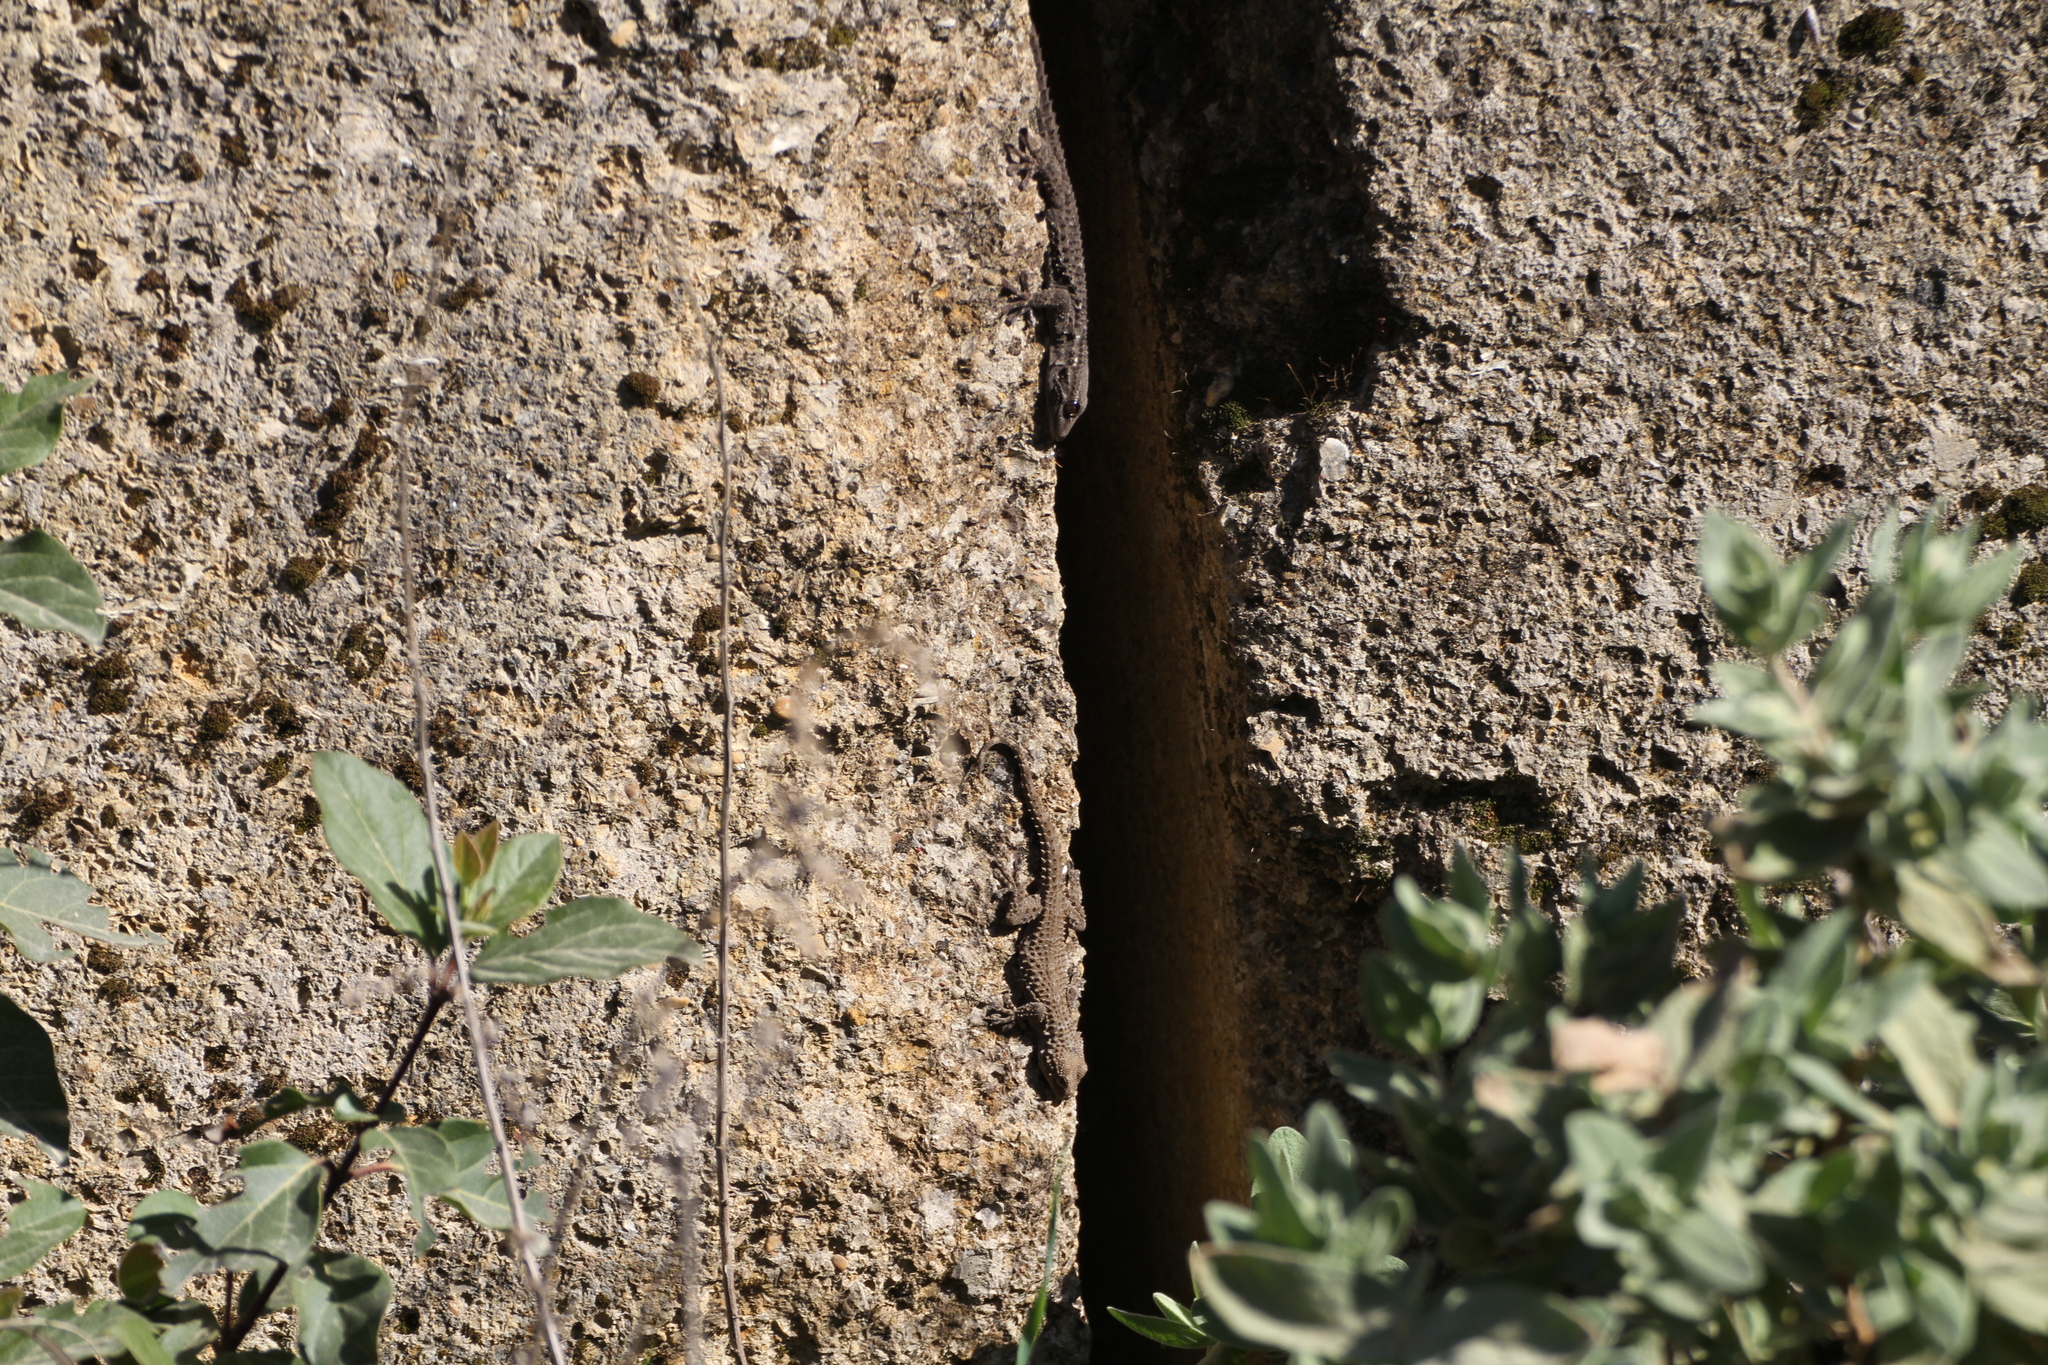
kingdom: Animalia
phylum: Chordata
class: Squamata
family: Phyllodactylidae
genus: Tarentola
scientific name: Tarentola mauritanica
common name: Moorish gecko
